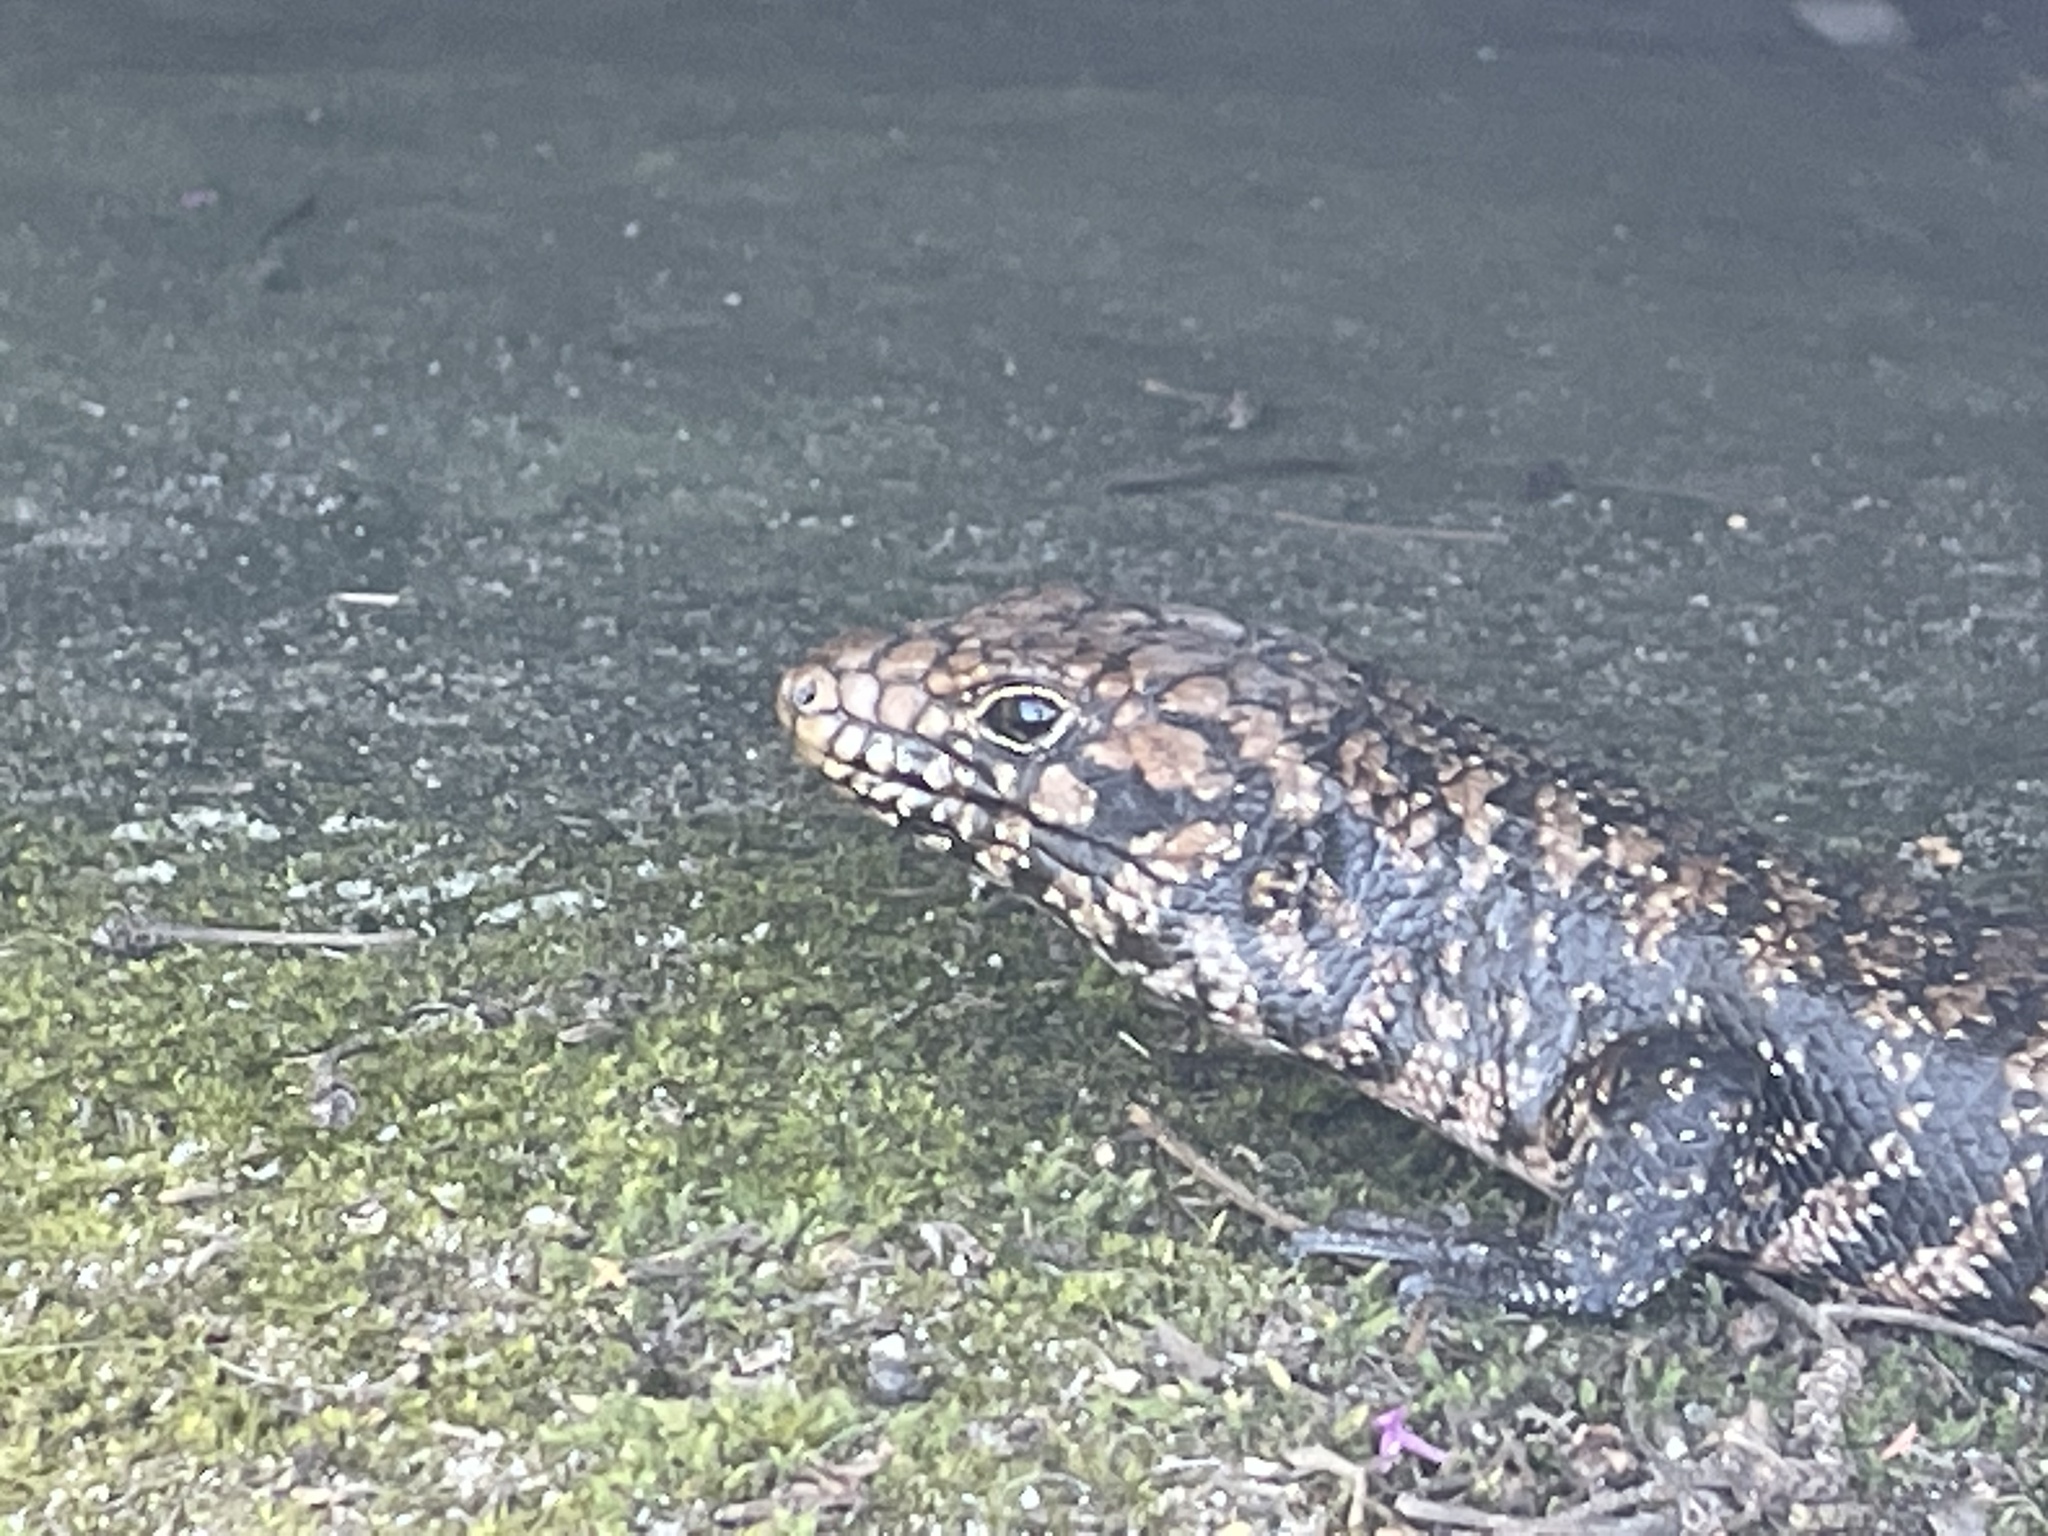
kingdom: Animalia
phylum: Chordata
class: Squamata
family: Scincidae
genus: Egernia
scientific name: Egernia cunninghami
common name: Cunningham's skink
